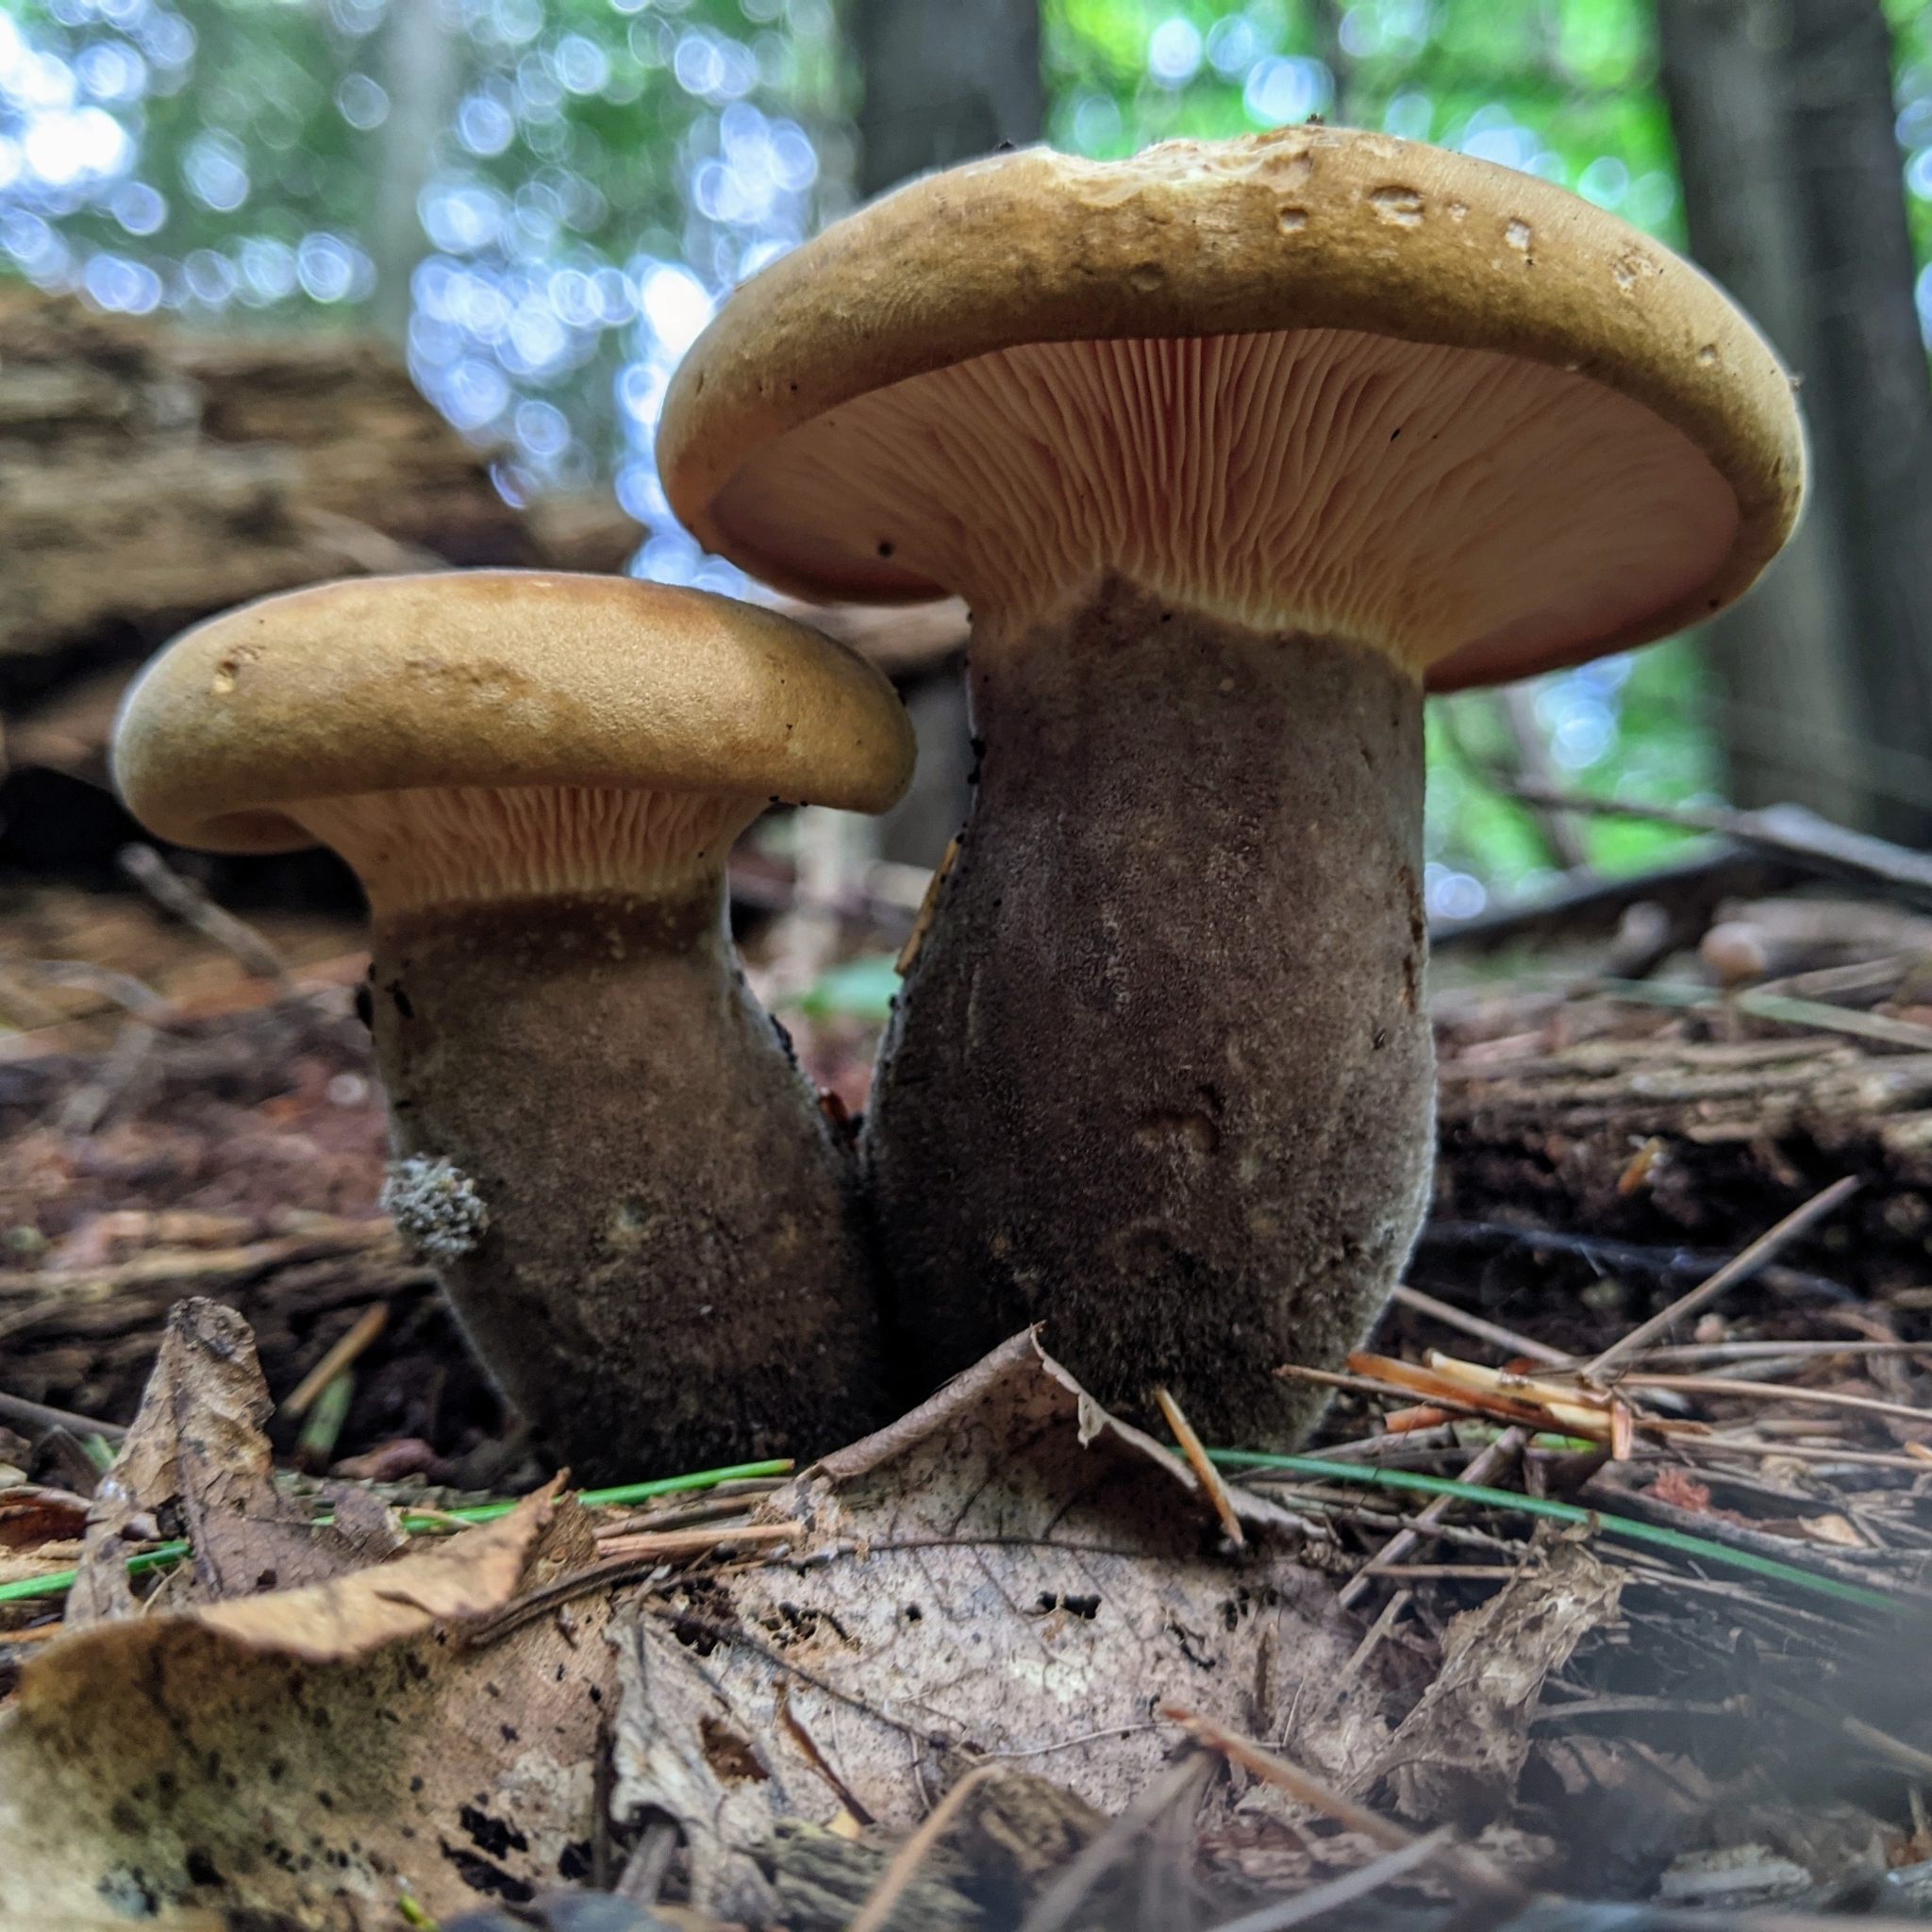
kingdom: Fungi
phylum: Basidiomycota
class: Agaricomycetes
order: Boletales
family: Tapinellaceae
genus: Tapinella
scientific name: Tapinella atrotomentosa
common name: Velvet rollrim
